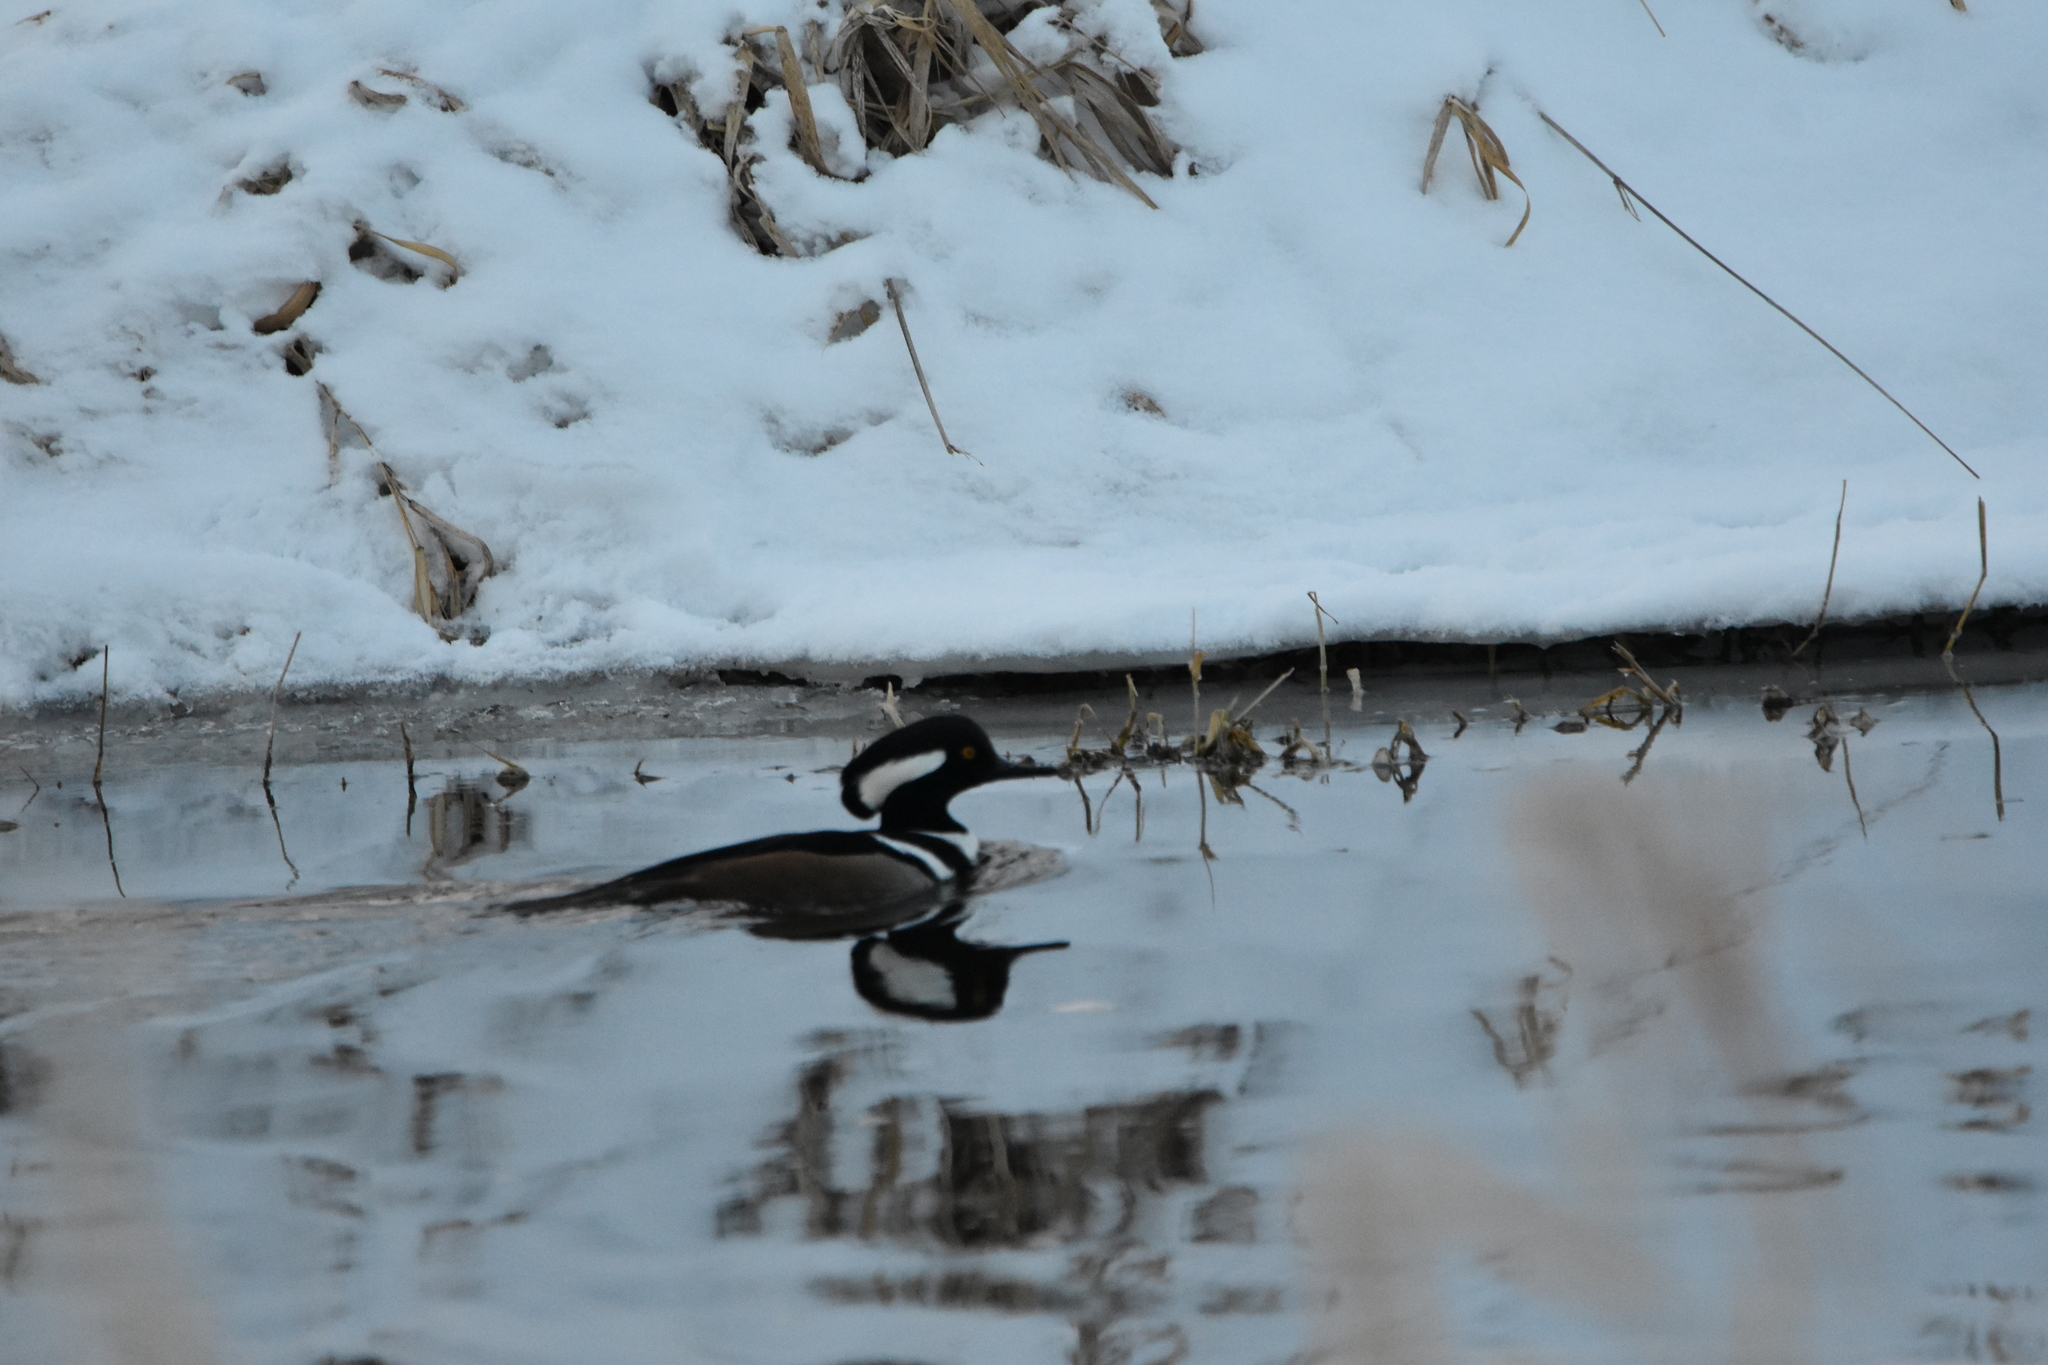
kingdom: Animalia
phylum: Chordata
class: Aves
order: Anseriformes
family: Anatidae
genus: Lophodytes
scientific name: Lophodytes cucullatus
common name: Hooded merganser
